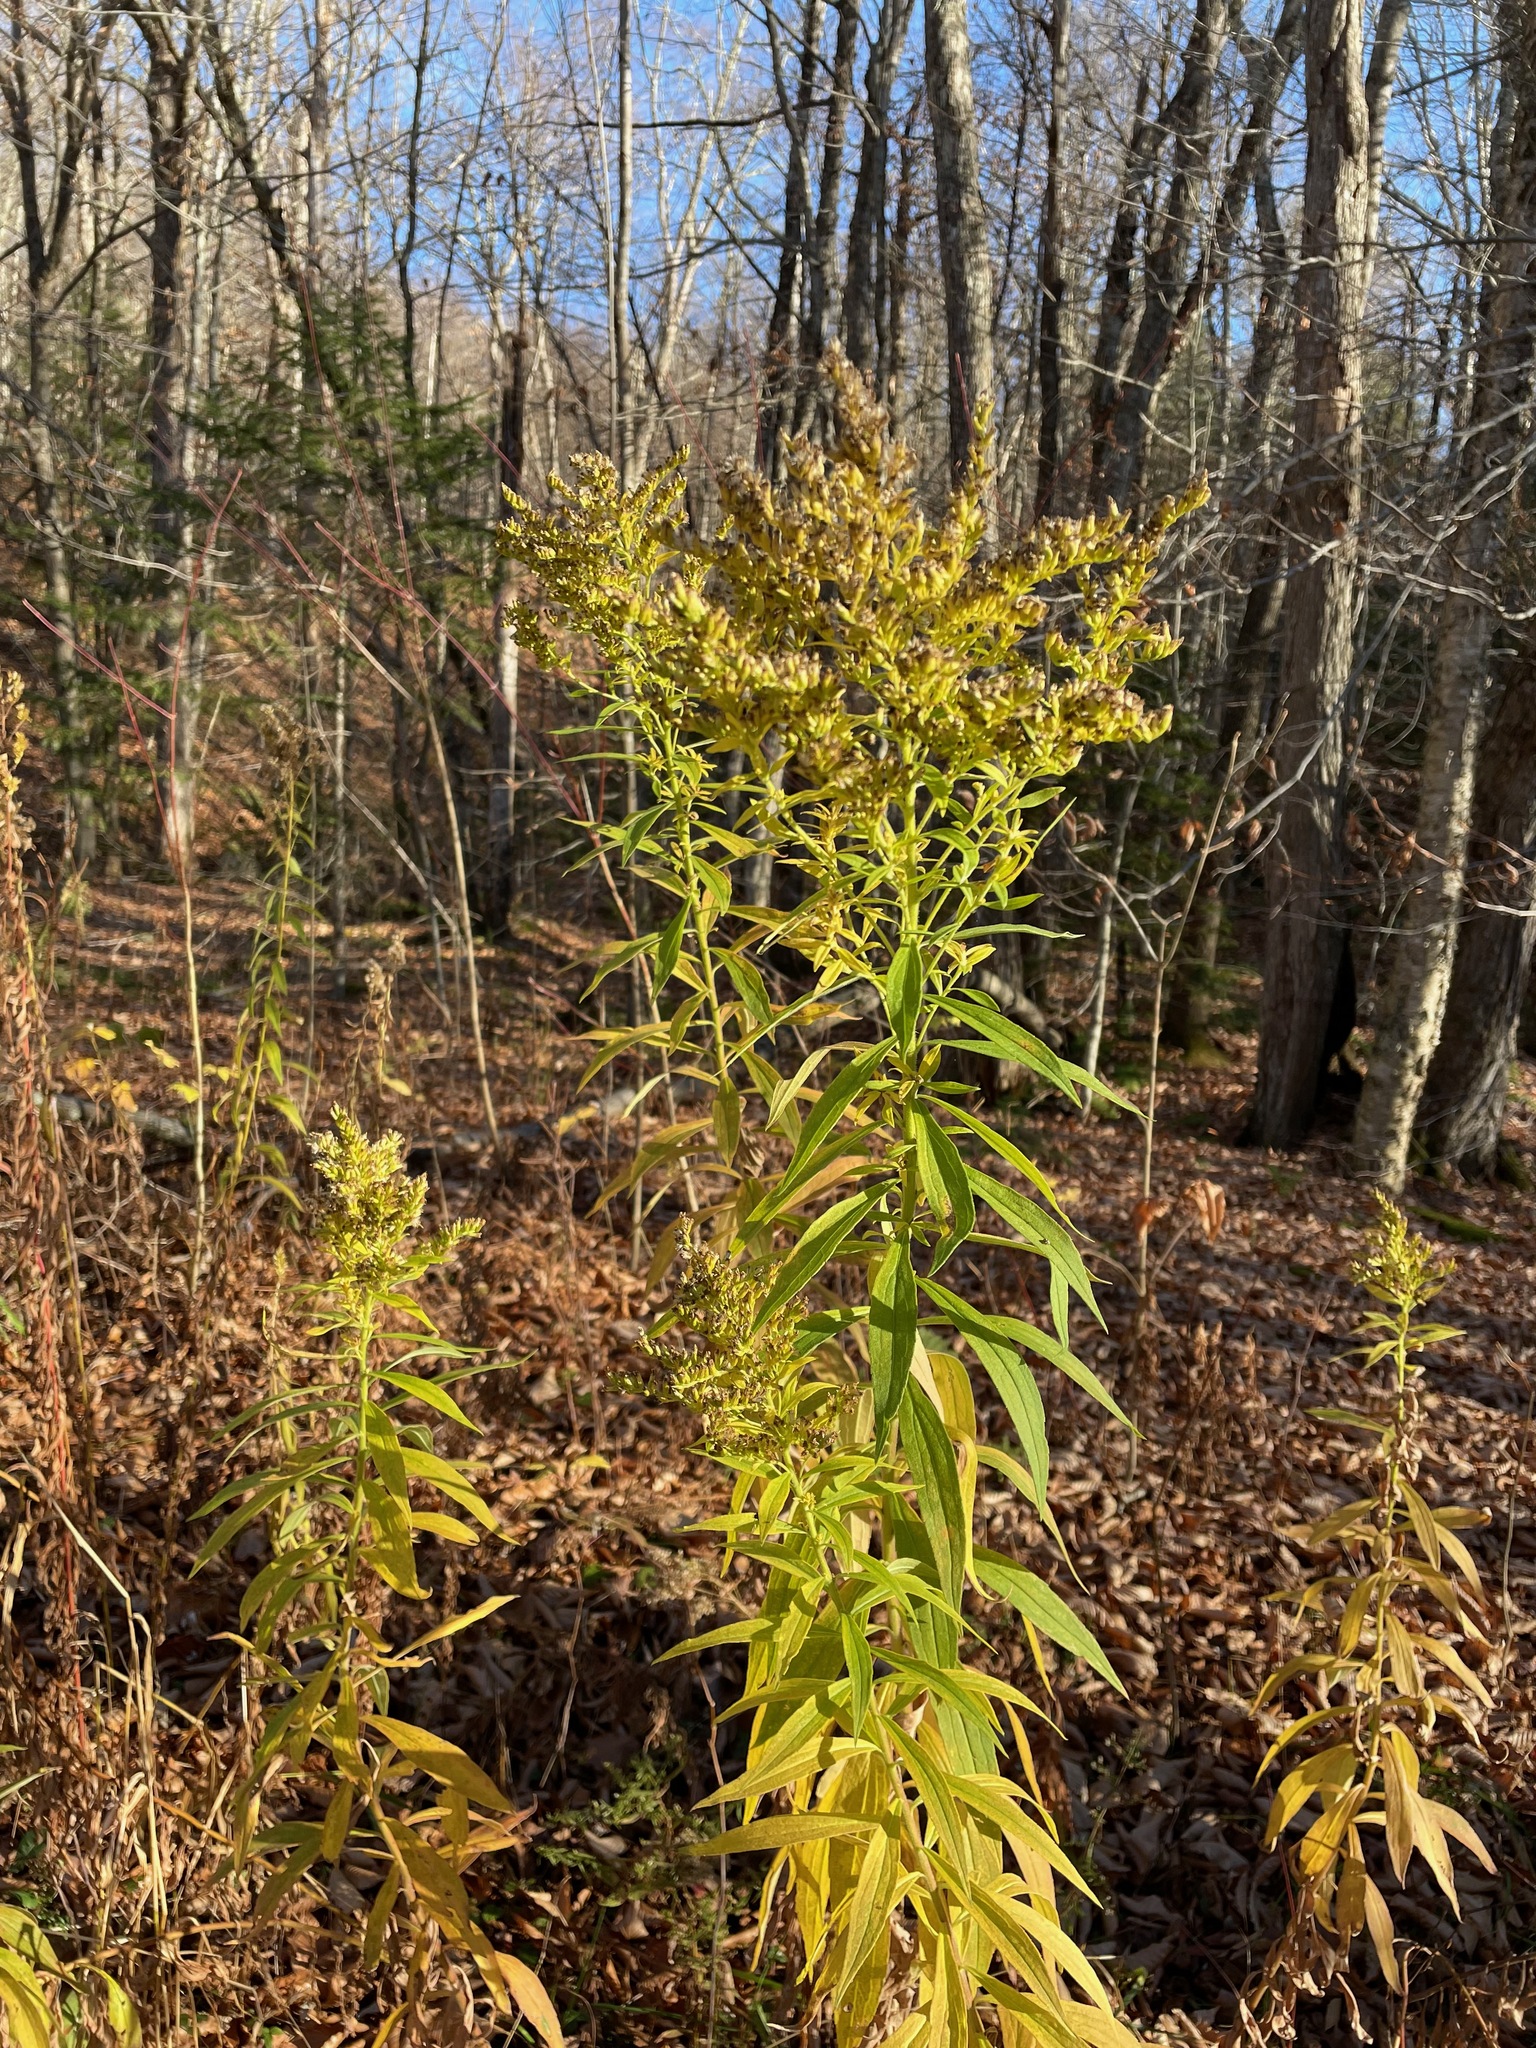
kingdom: Plantae
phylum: Tracheophyta
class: Magnoliopsida
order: Asterales
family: Asteraceae
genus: Solidago
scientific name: Solidago altissima
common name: Late goldenrod
